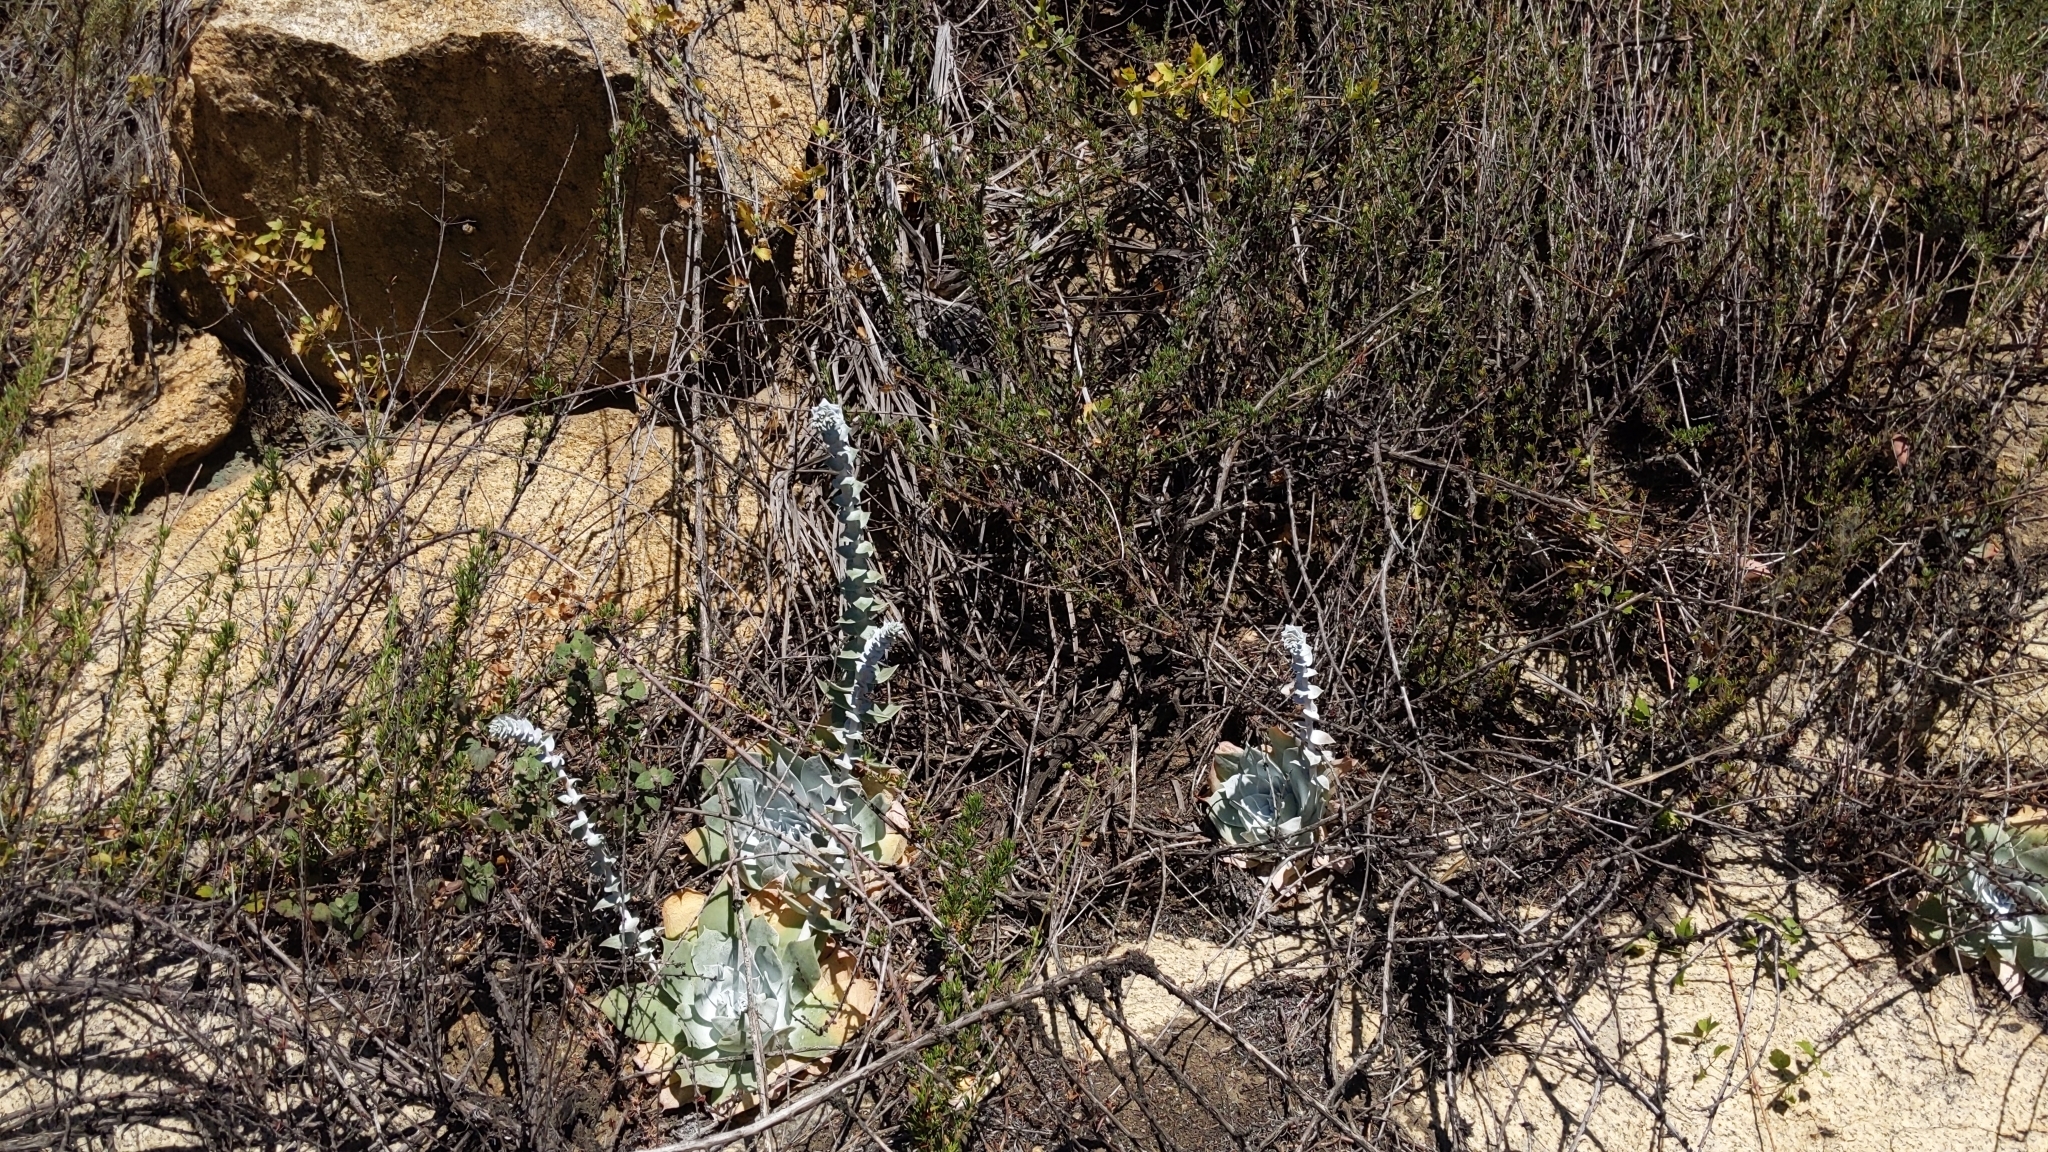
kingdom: Plantae
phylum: Tracheophyta
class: Magnoliopsida
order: Saxifragales
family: Crassulaceae
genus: Dudleya
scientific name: Dudleya pulverulenta
